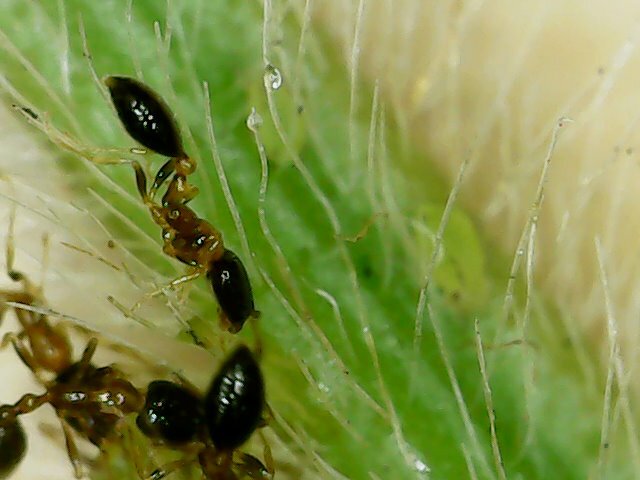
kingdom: Animalia
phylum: Arthropoda
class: Insecta
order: Hymenoptera
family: Formicidae
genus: Monomorium
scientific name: Monomorium floricola
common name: Bicolored trailing ant
